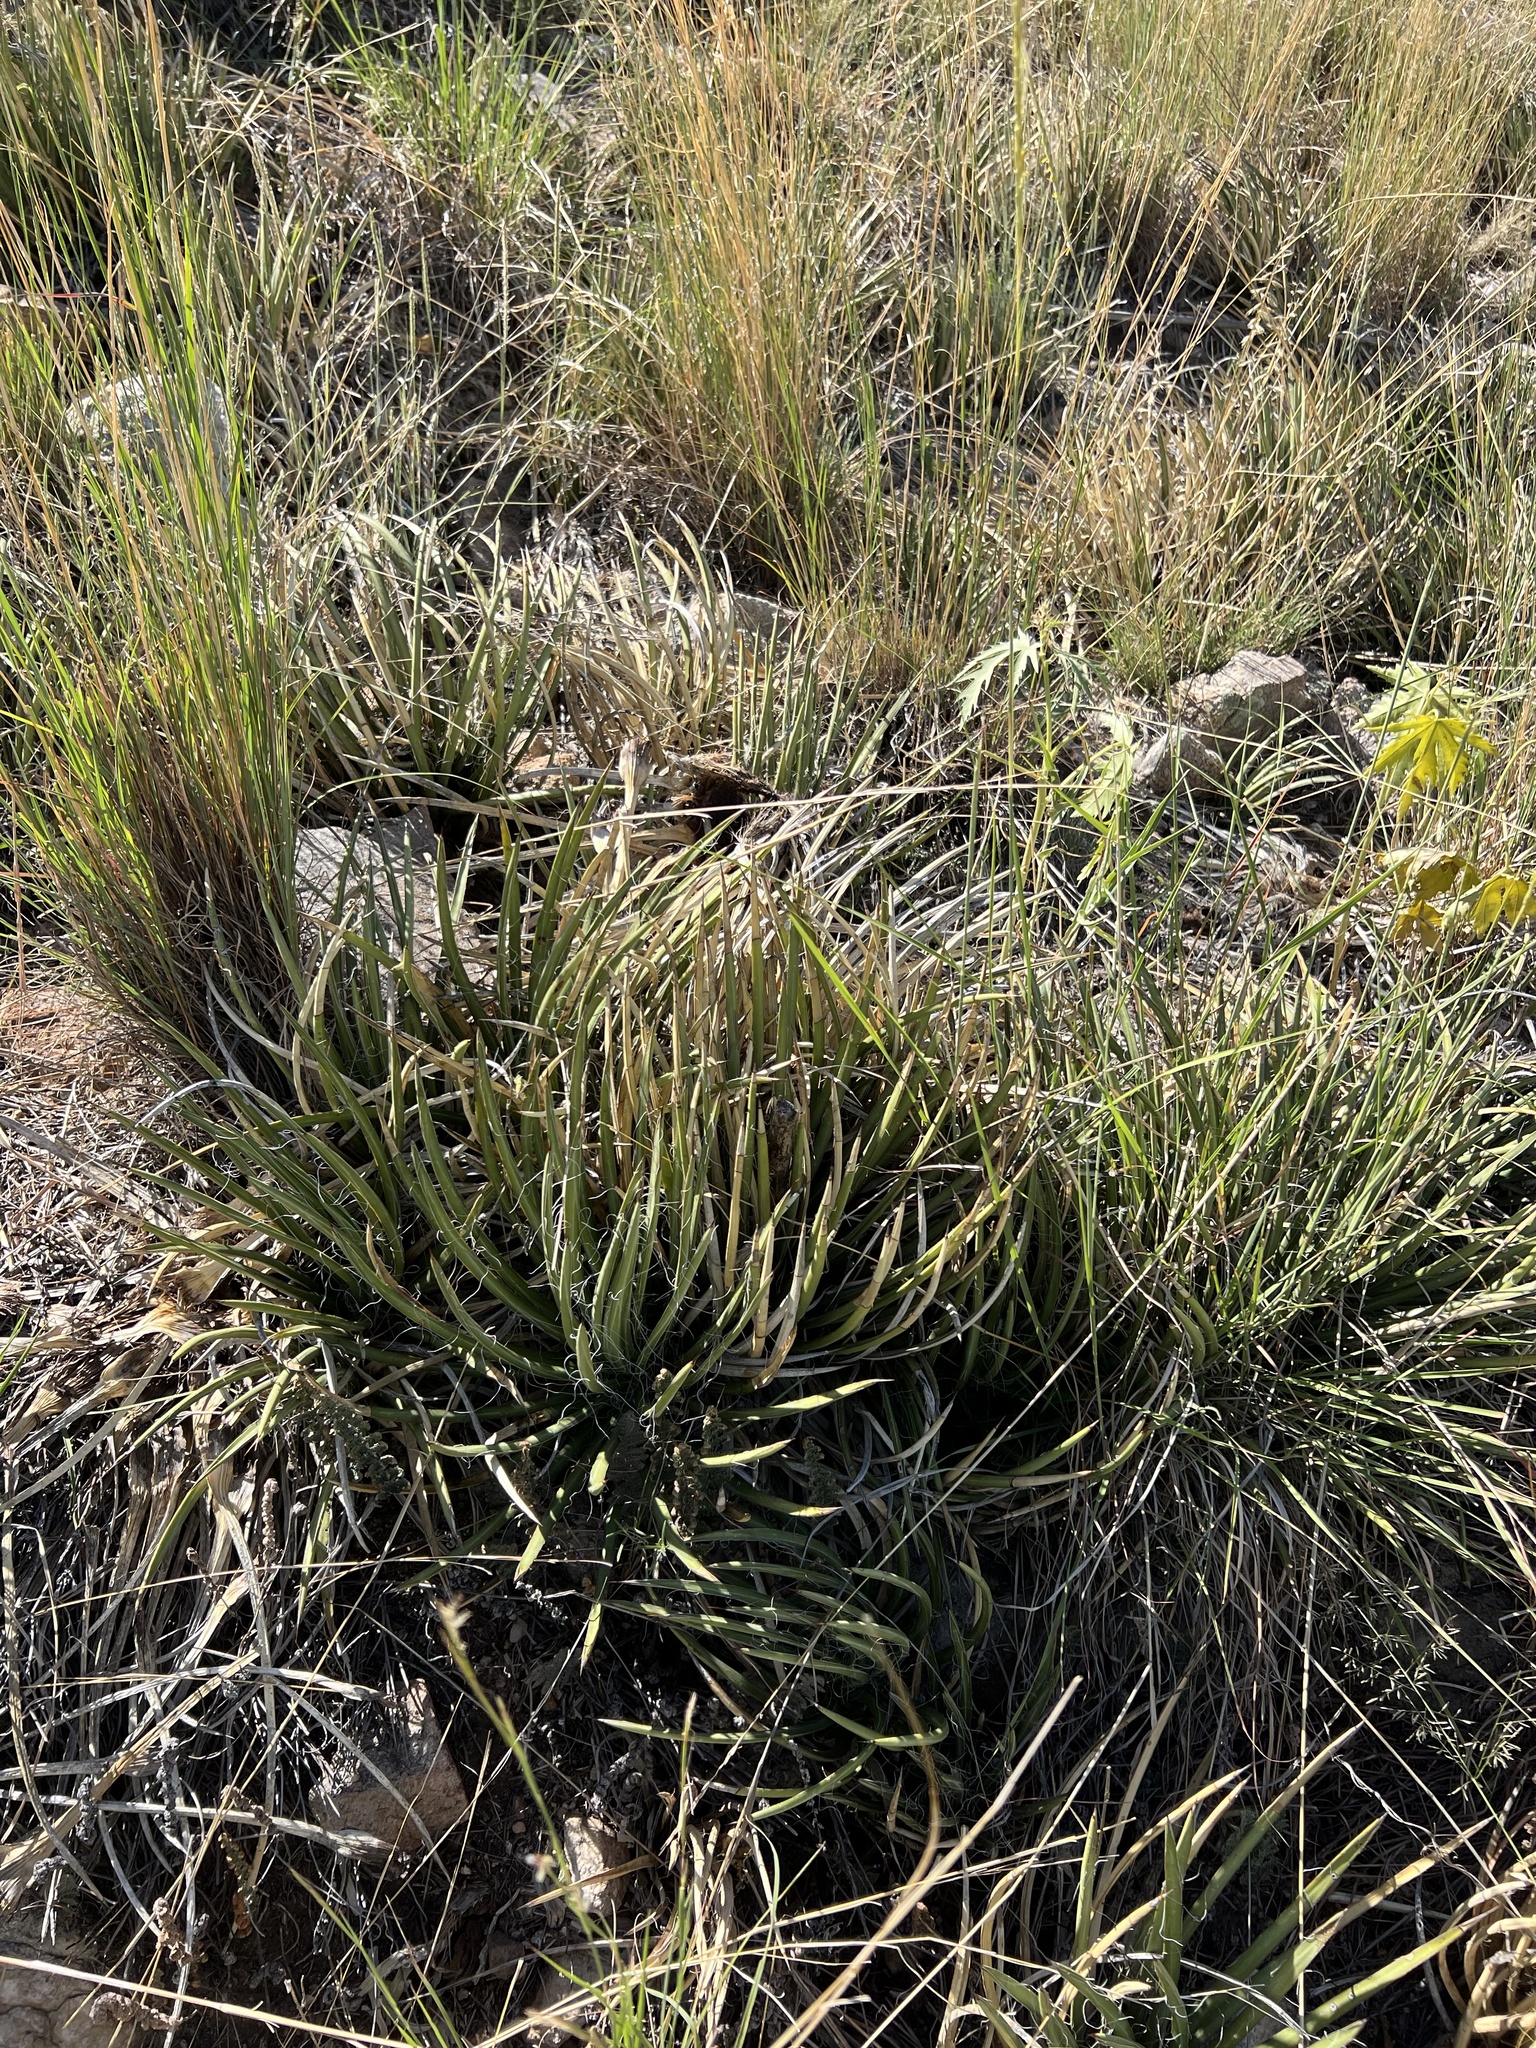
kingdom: Plantae
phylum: Tracheophyta
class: Liliopsida
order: Asparagales
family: Asparagaceae
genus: Agave
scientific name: Agave schottii
